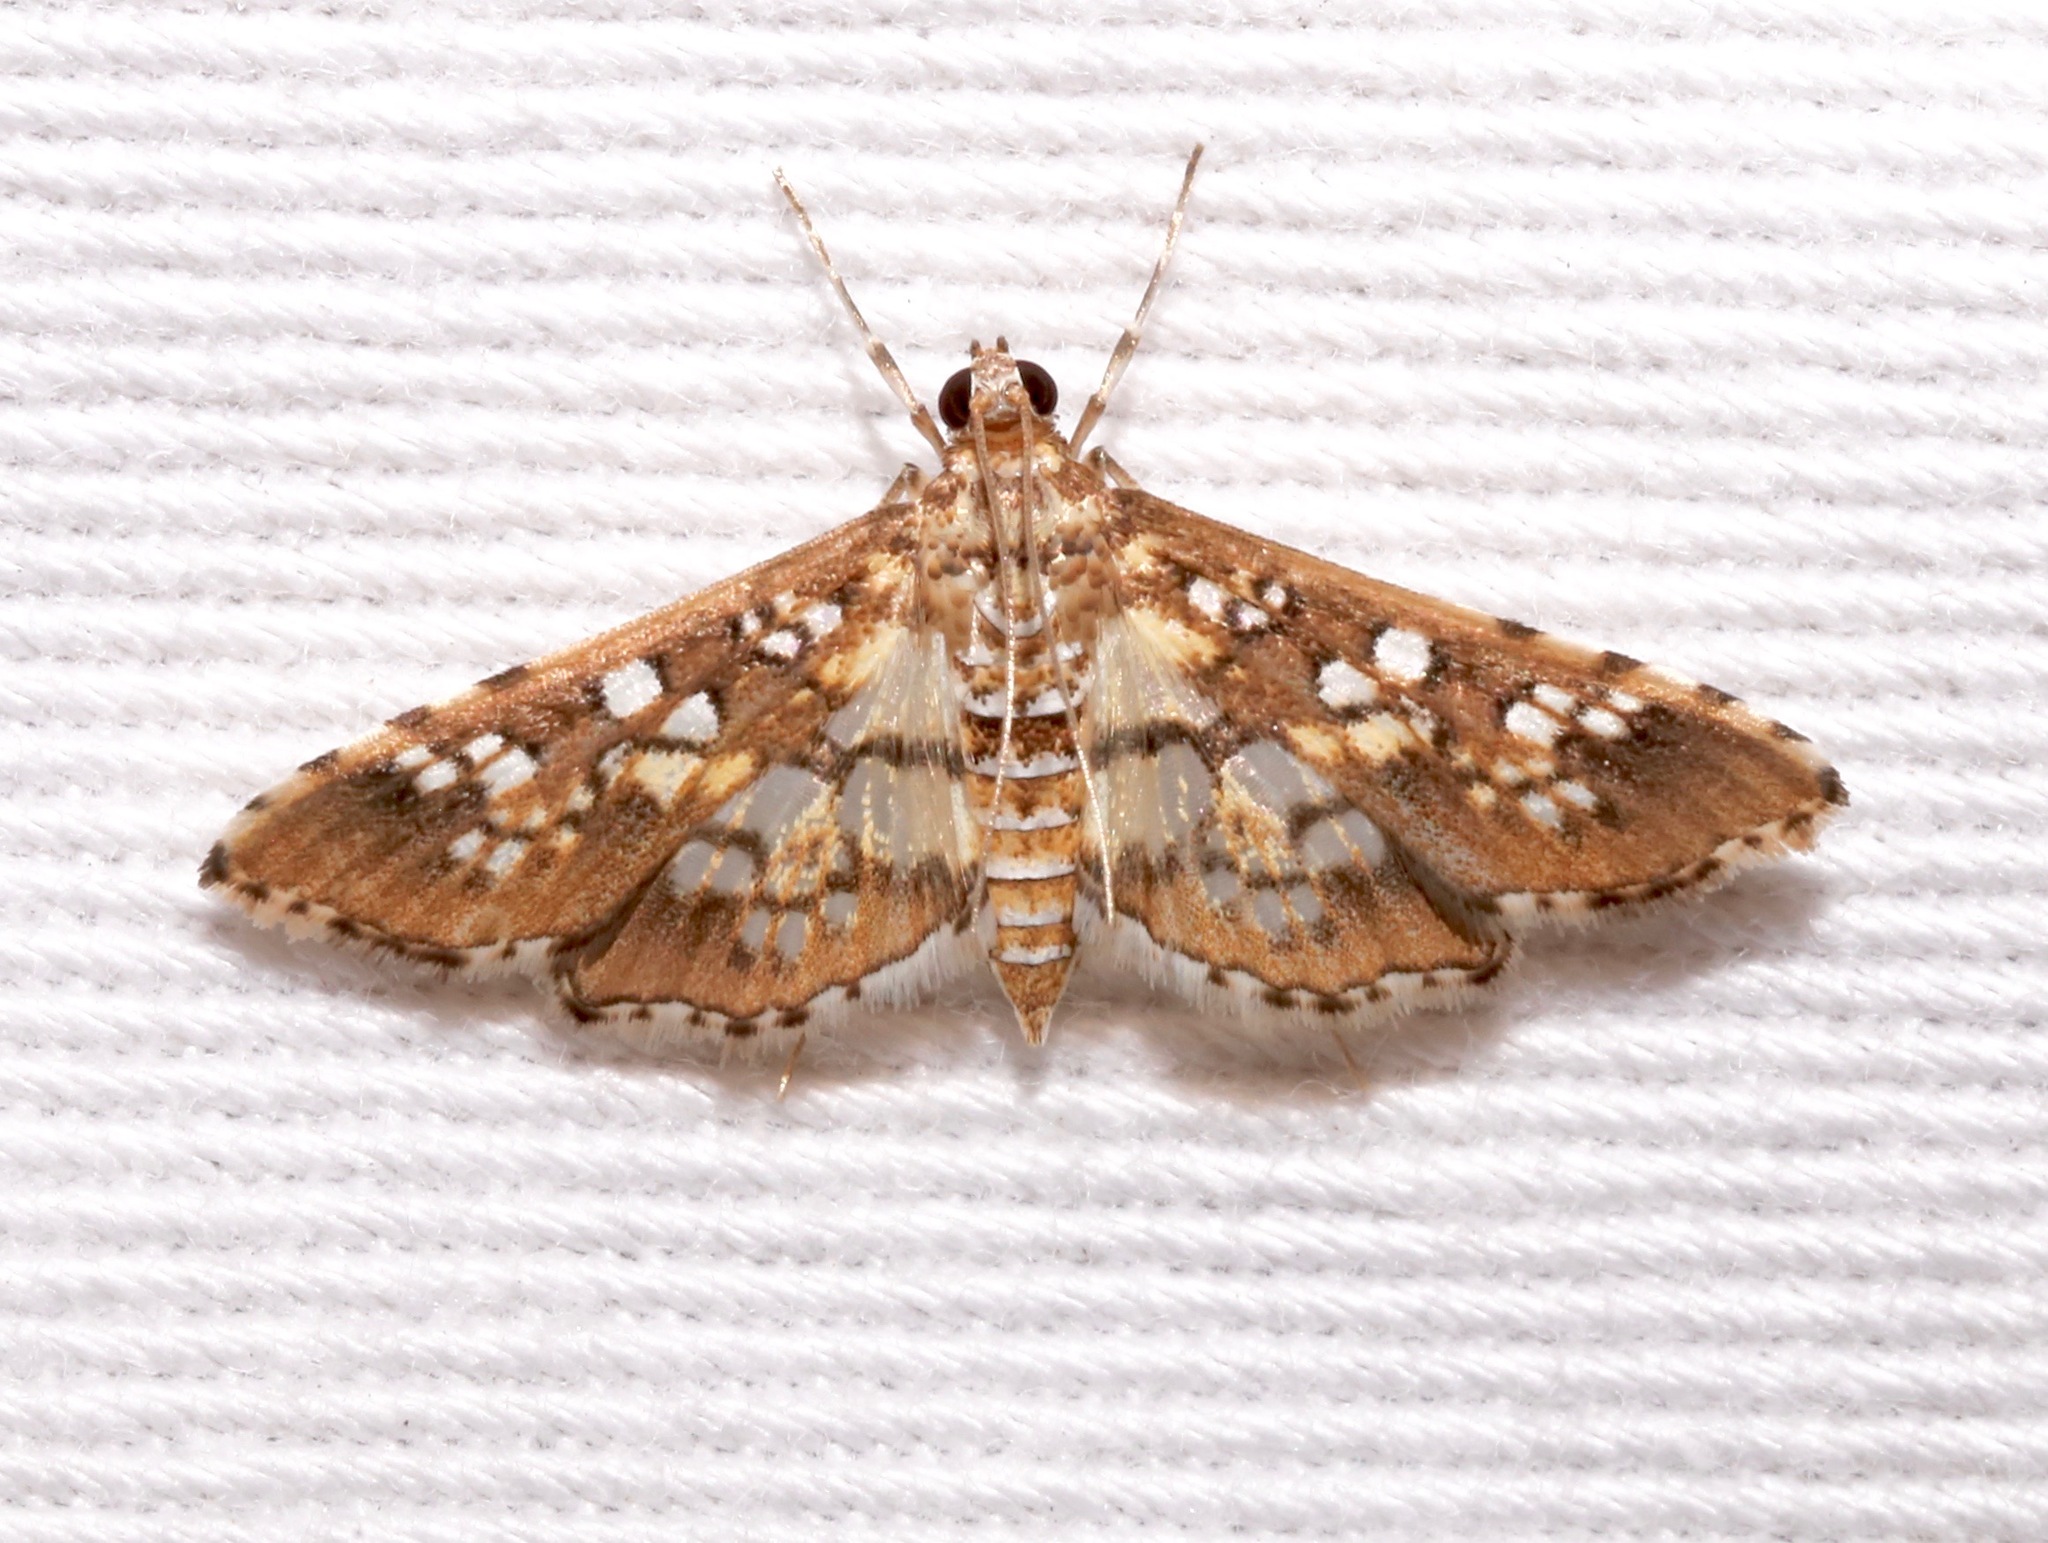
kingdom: Animalia
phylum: Arthropoda
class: Insecta
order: Lepidoptera
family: Crambidae
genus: Samea
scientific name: Samea ecclesialis
